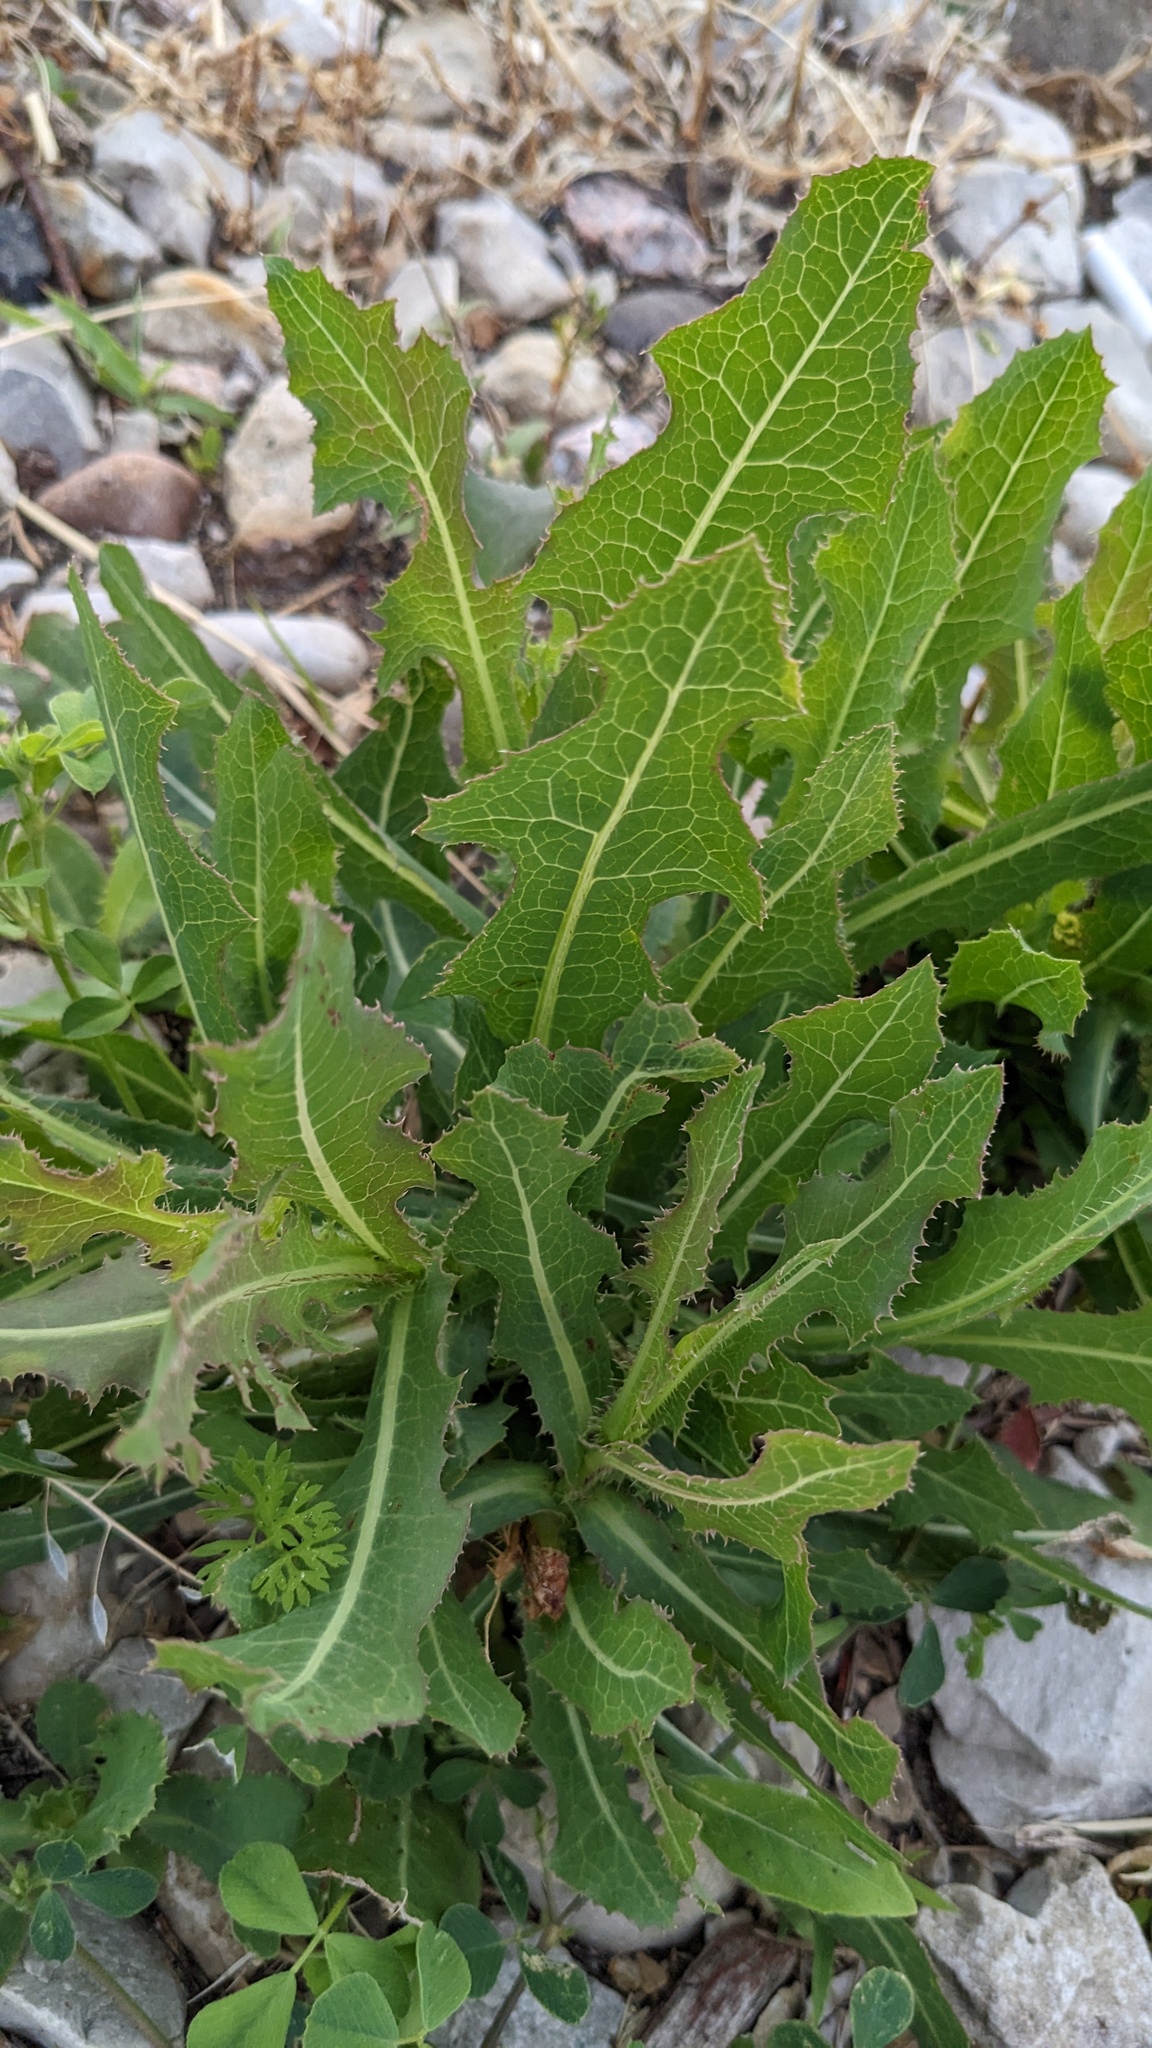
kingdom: Plantae
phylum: Tracheophyta
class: Magnoliopsida
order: Asterales
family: Asteraceae
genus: Sonchus
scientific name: Sonchus arvensis
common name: Perennial sow-thistle
